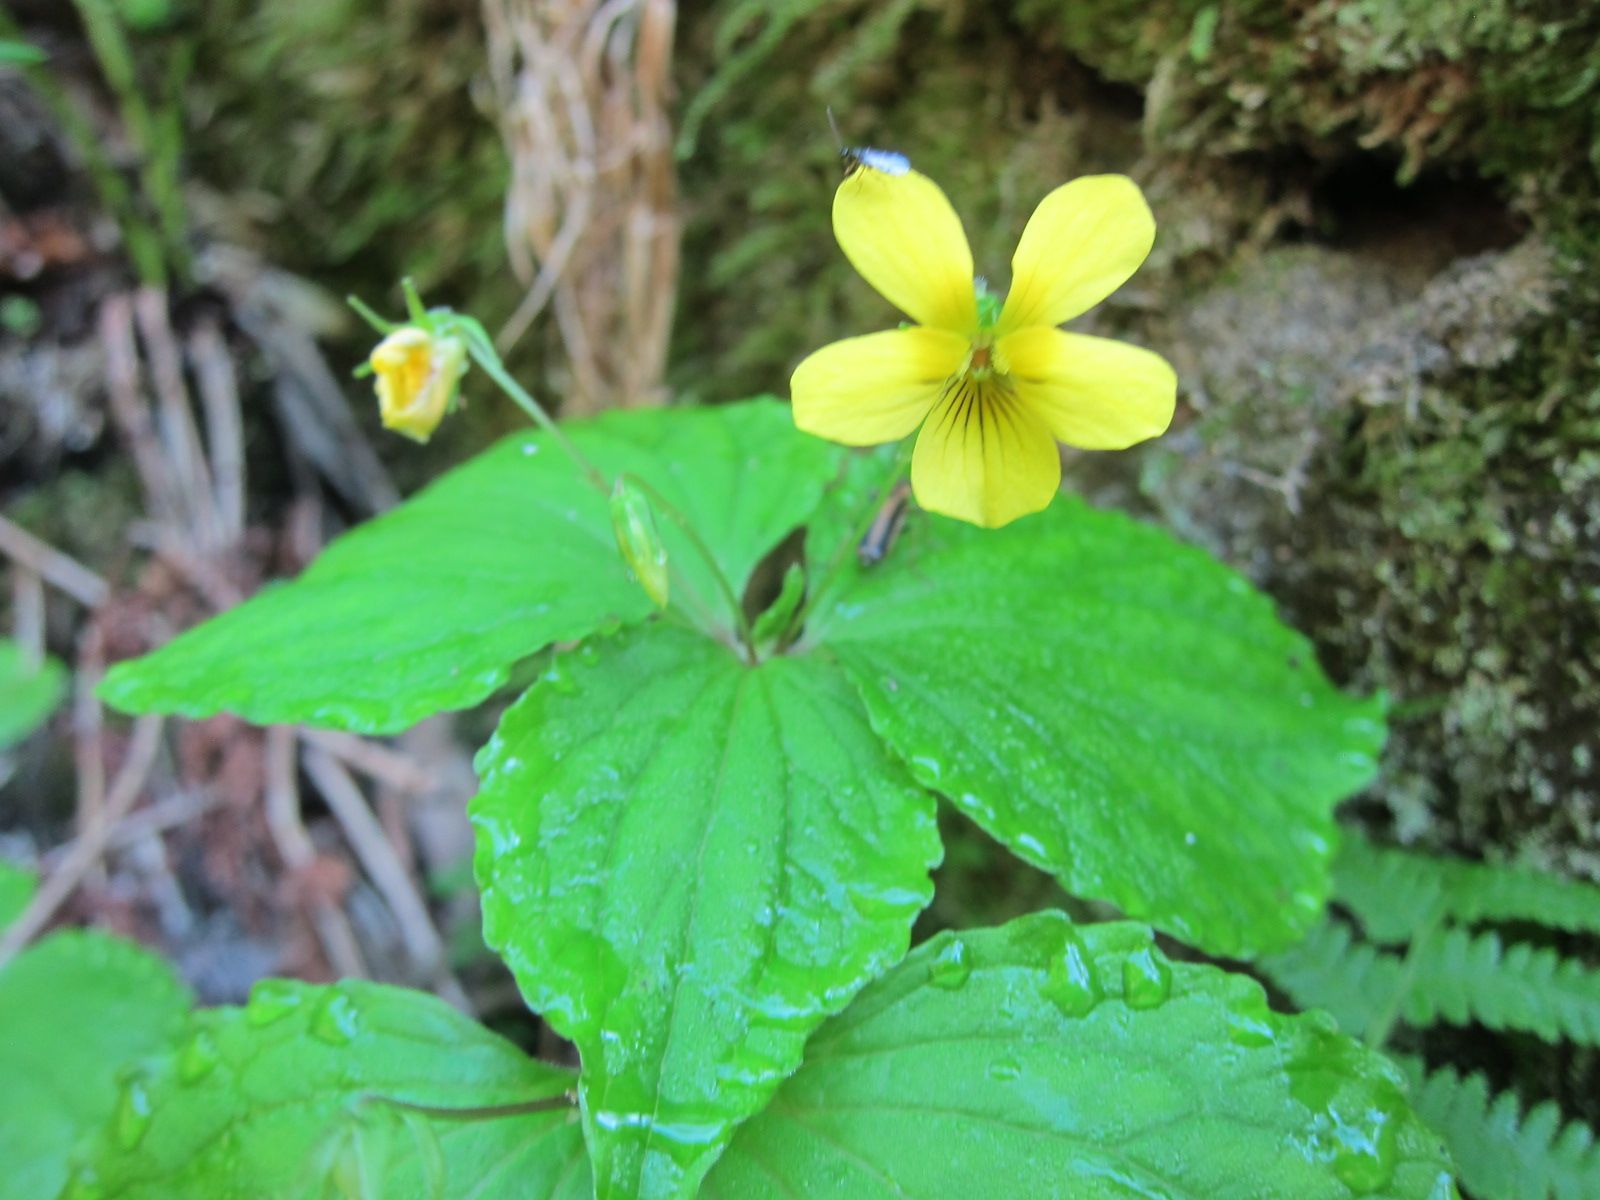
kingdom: Plantae
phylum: Tracheophyta
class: Magnoliopsida
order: Malpighiales
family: Violaceae
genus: Viola
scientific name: Viola brevistipulata
